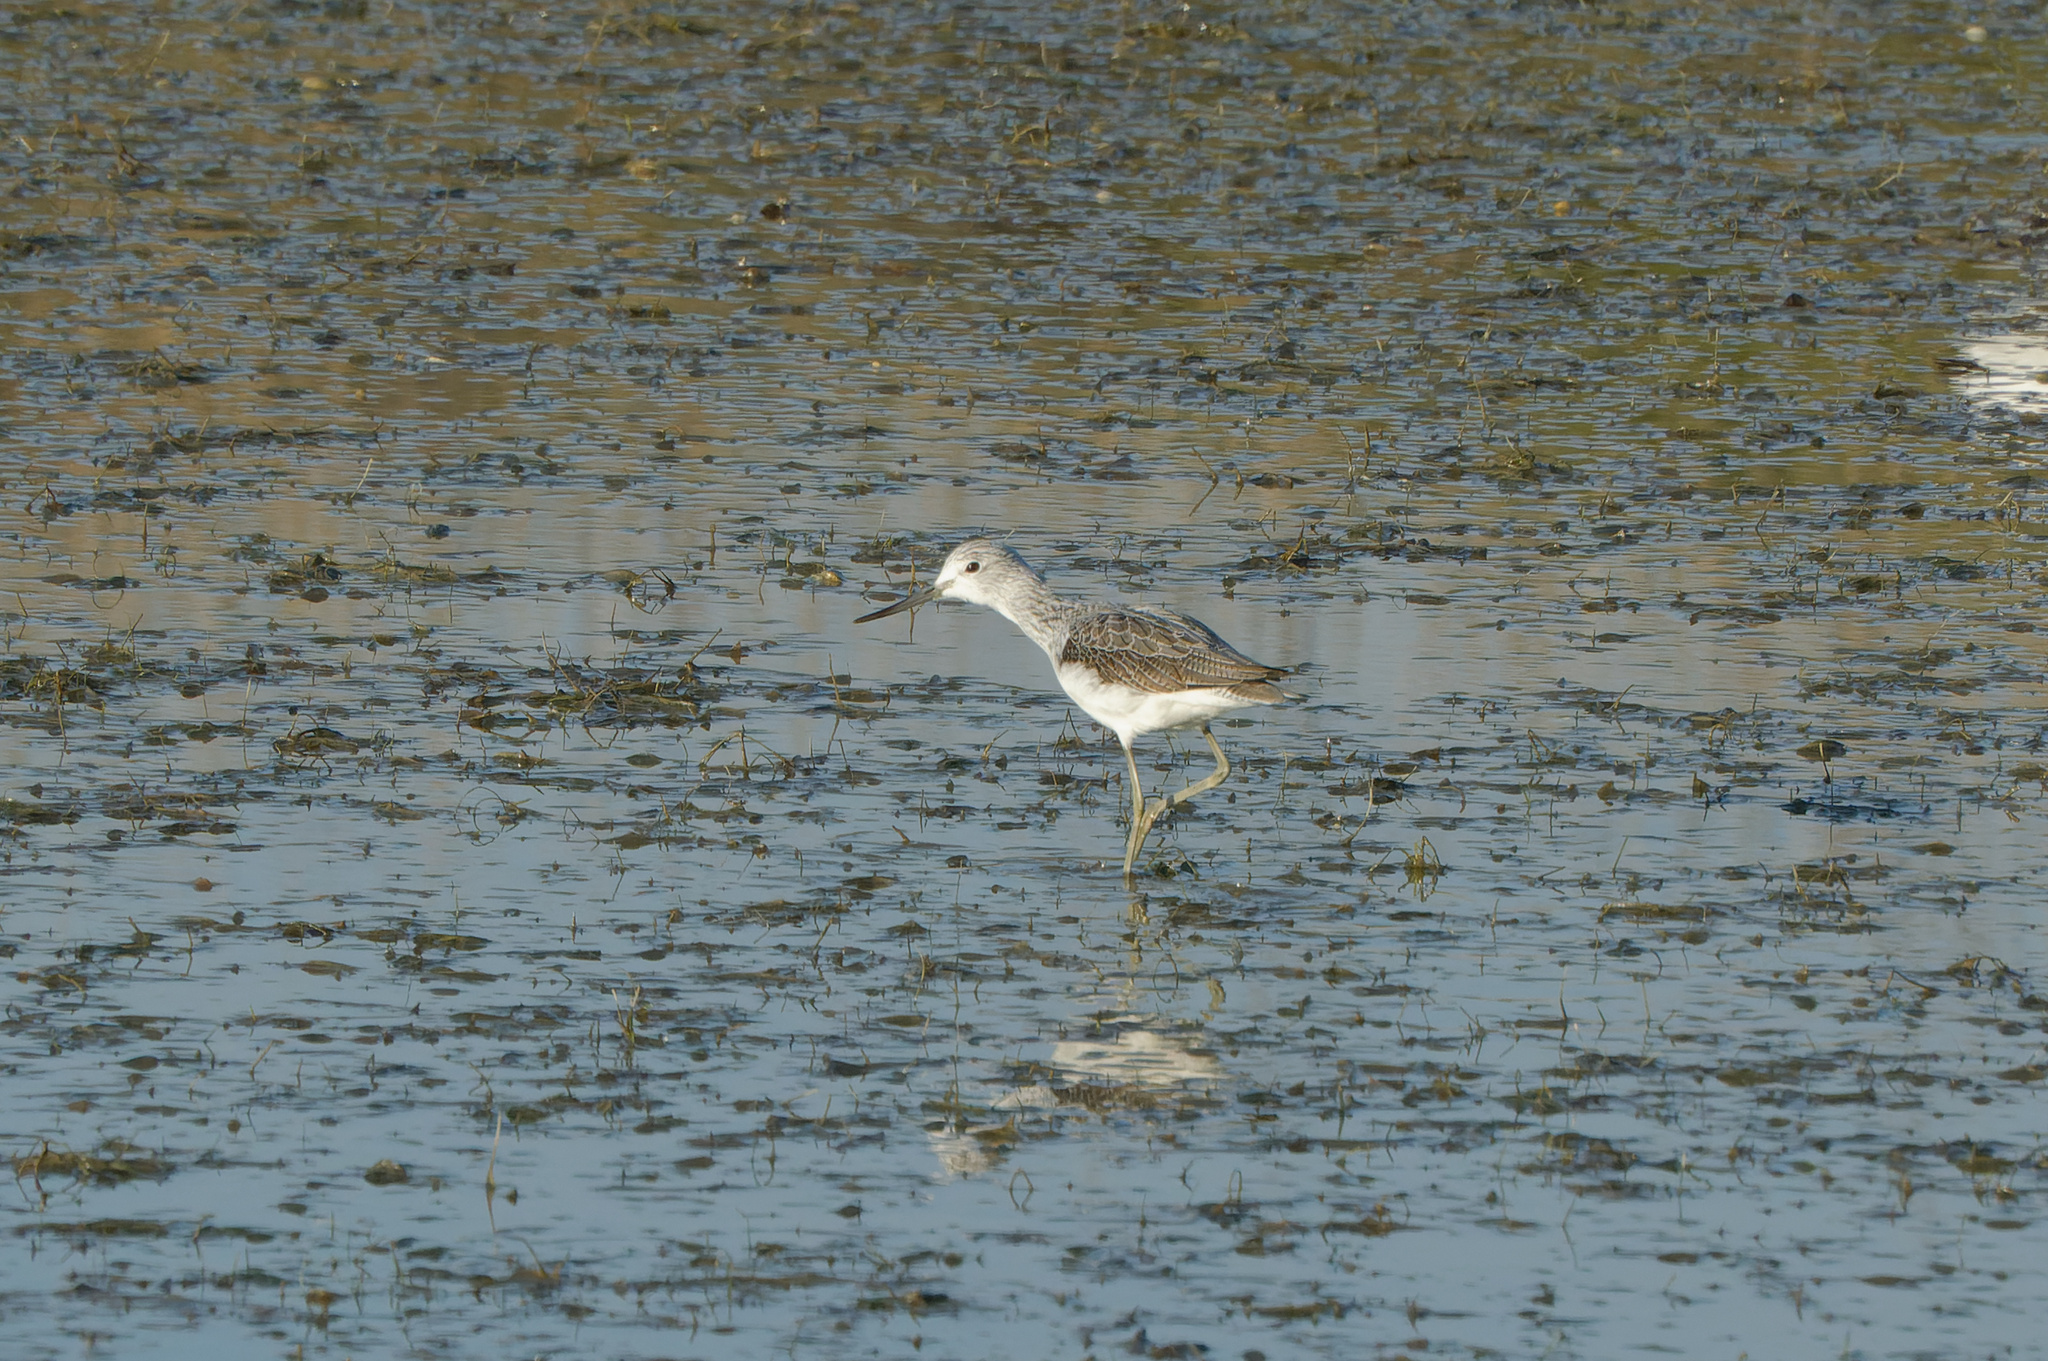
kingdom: Animalia
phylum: Chordata
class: Aves
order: Charadriiformes
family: Scolopacidae
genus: Tringa
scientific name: Tringa nebularia
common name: Common greenshank
